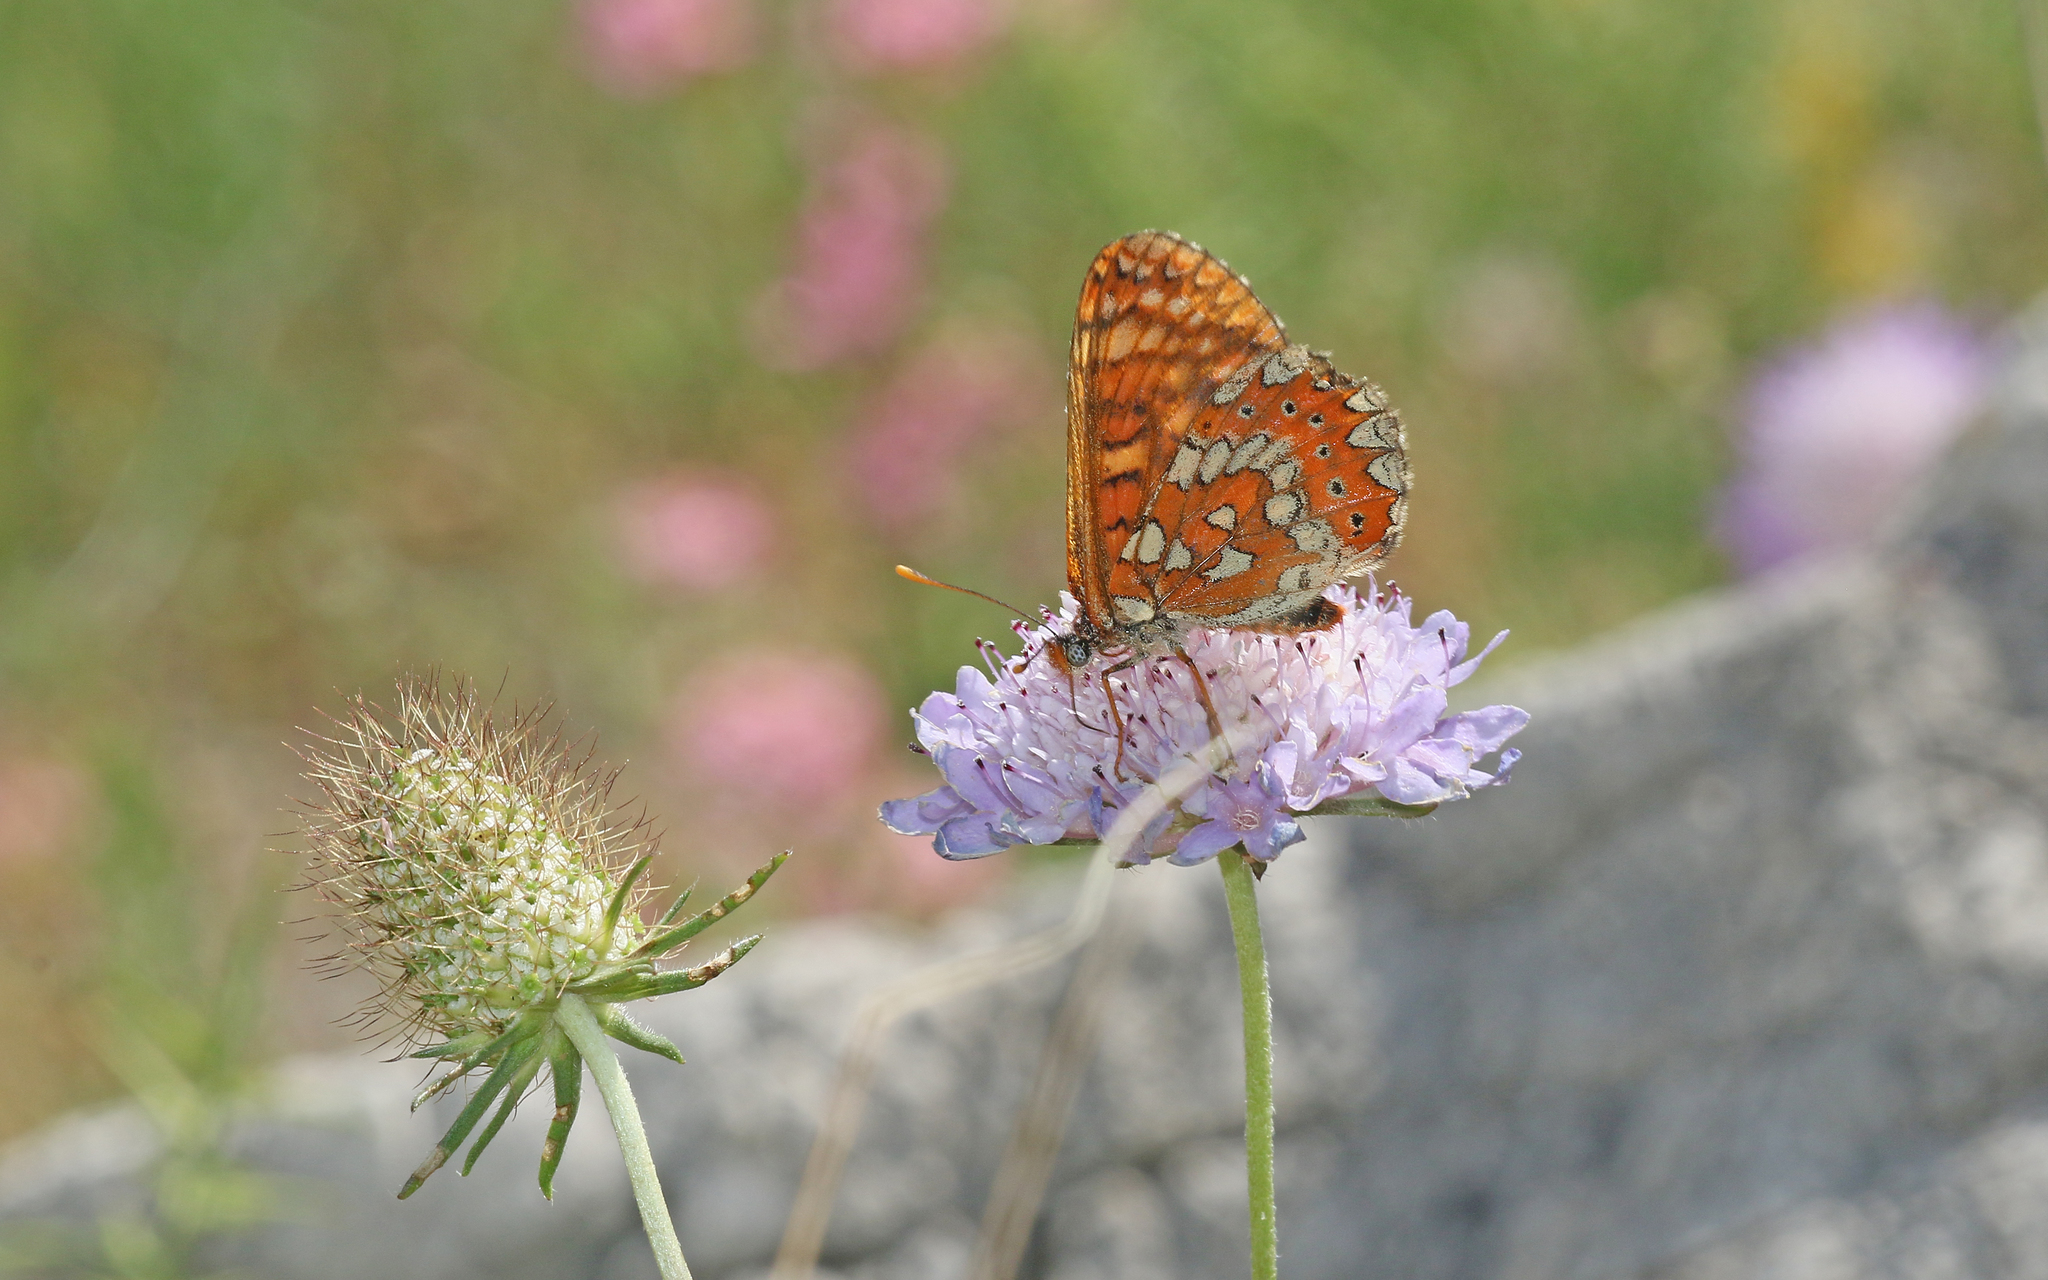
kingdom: Animalia
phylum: Arthropoda
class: Insecta
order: Lepidoptera
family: Nymphalidae
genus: Euphydryas
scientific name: Euphydryas aurinia
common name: Marsh fritillary
